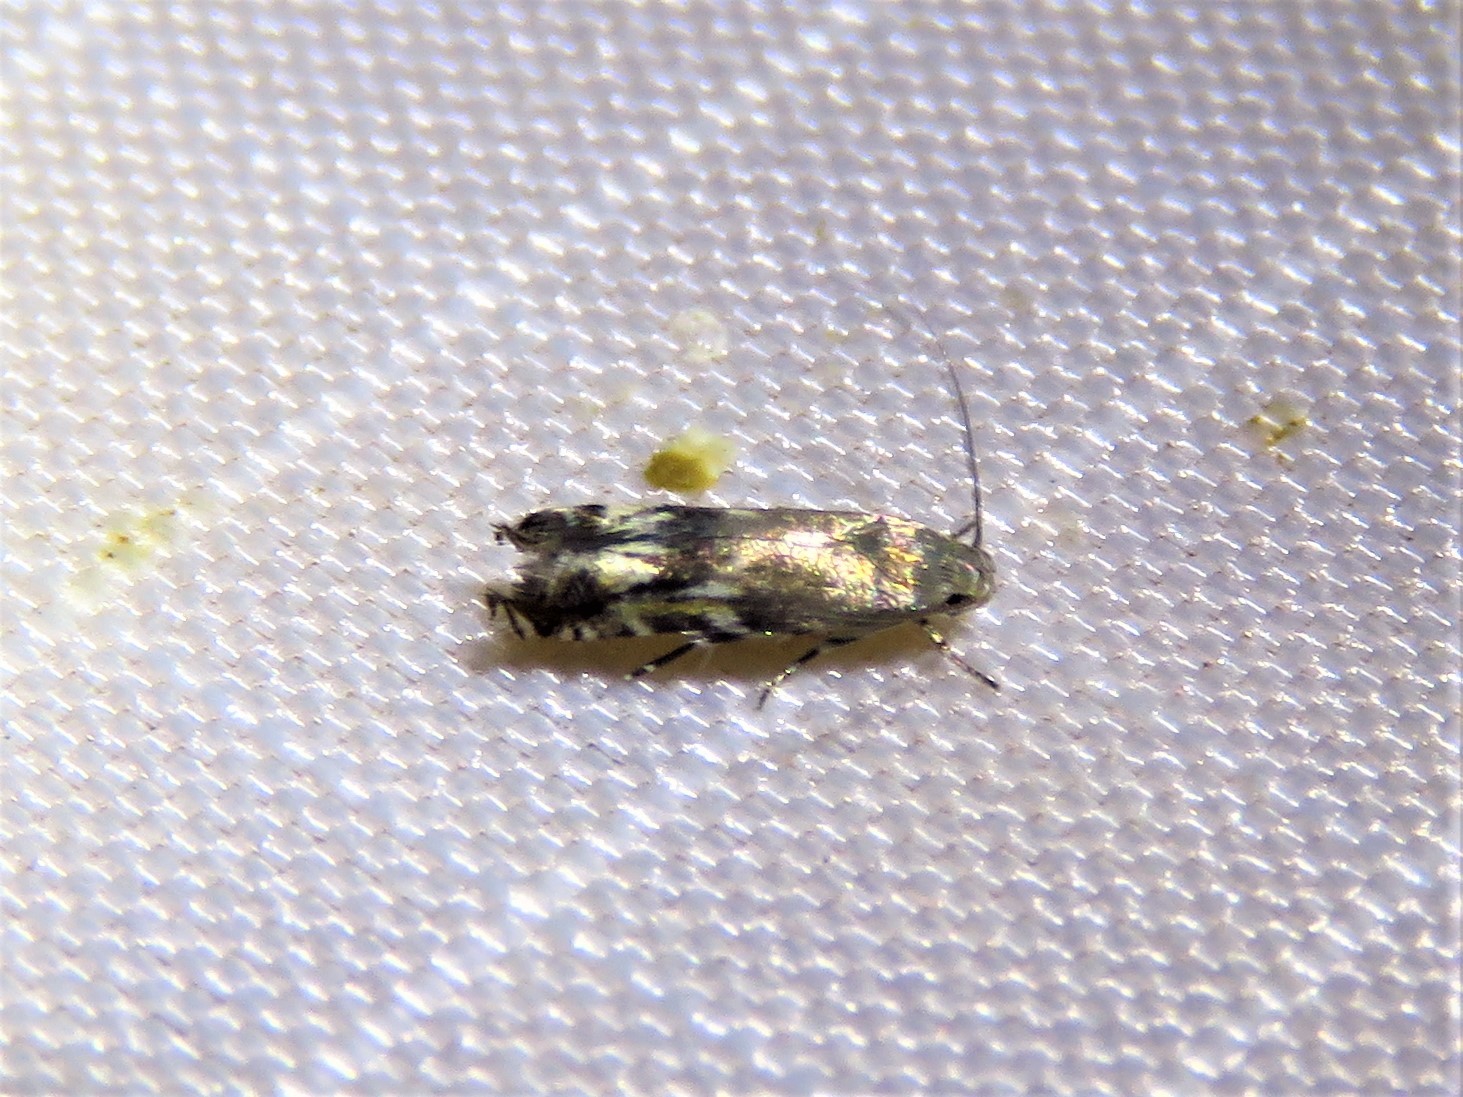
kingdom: Animalia
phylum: Arthropoda
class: Insecta
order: Lepidoptera
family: Gelechiidae
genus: Calliprora
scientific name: Calliprora sexstrigella
